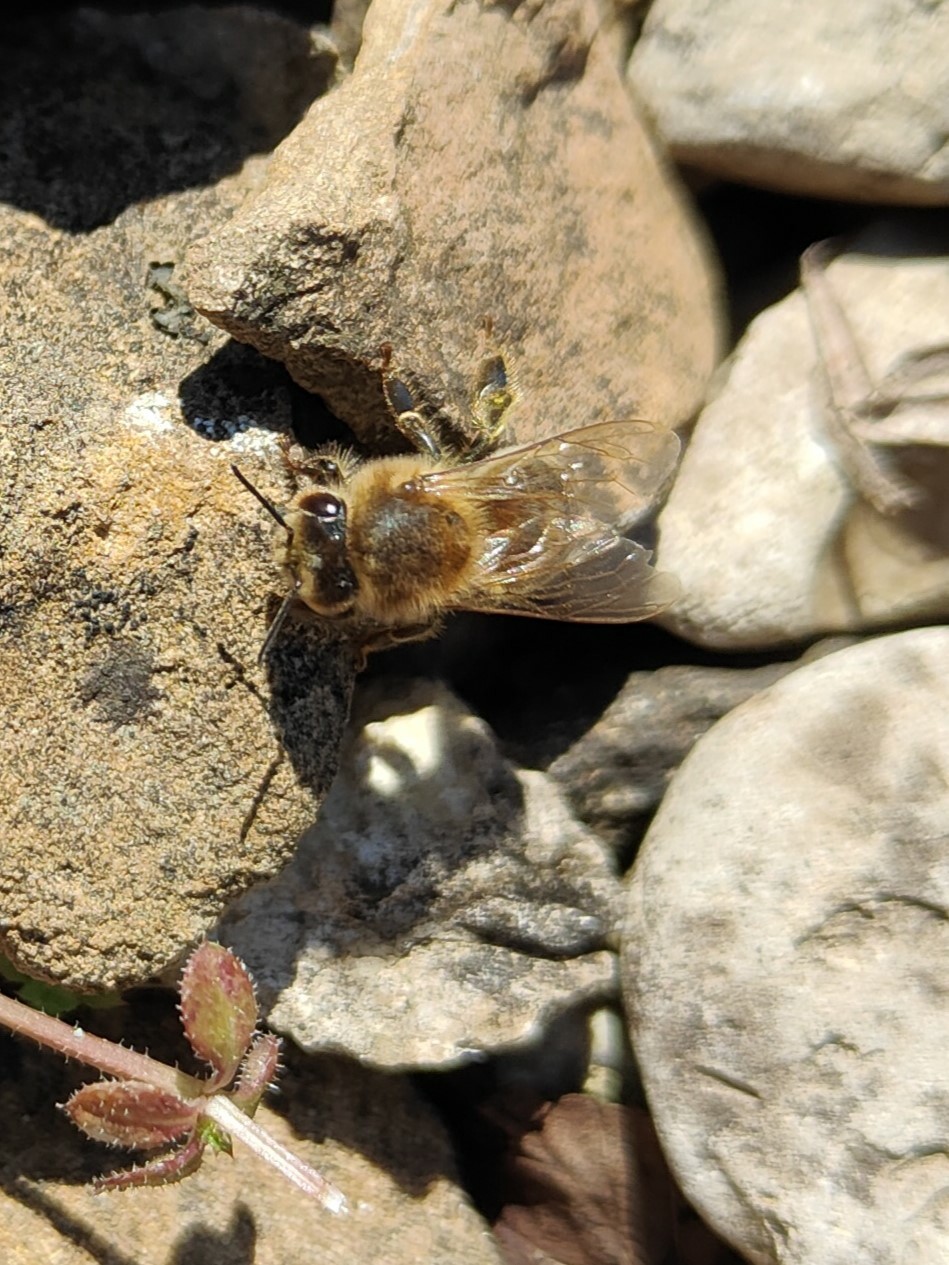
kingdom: Animalia
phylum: Arthropoda
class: Insecta
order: Hymenoptera
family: Apidae
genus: Apis
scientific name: Apis mellifera
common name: Honey bee
